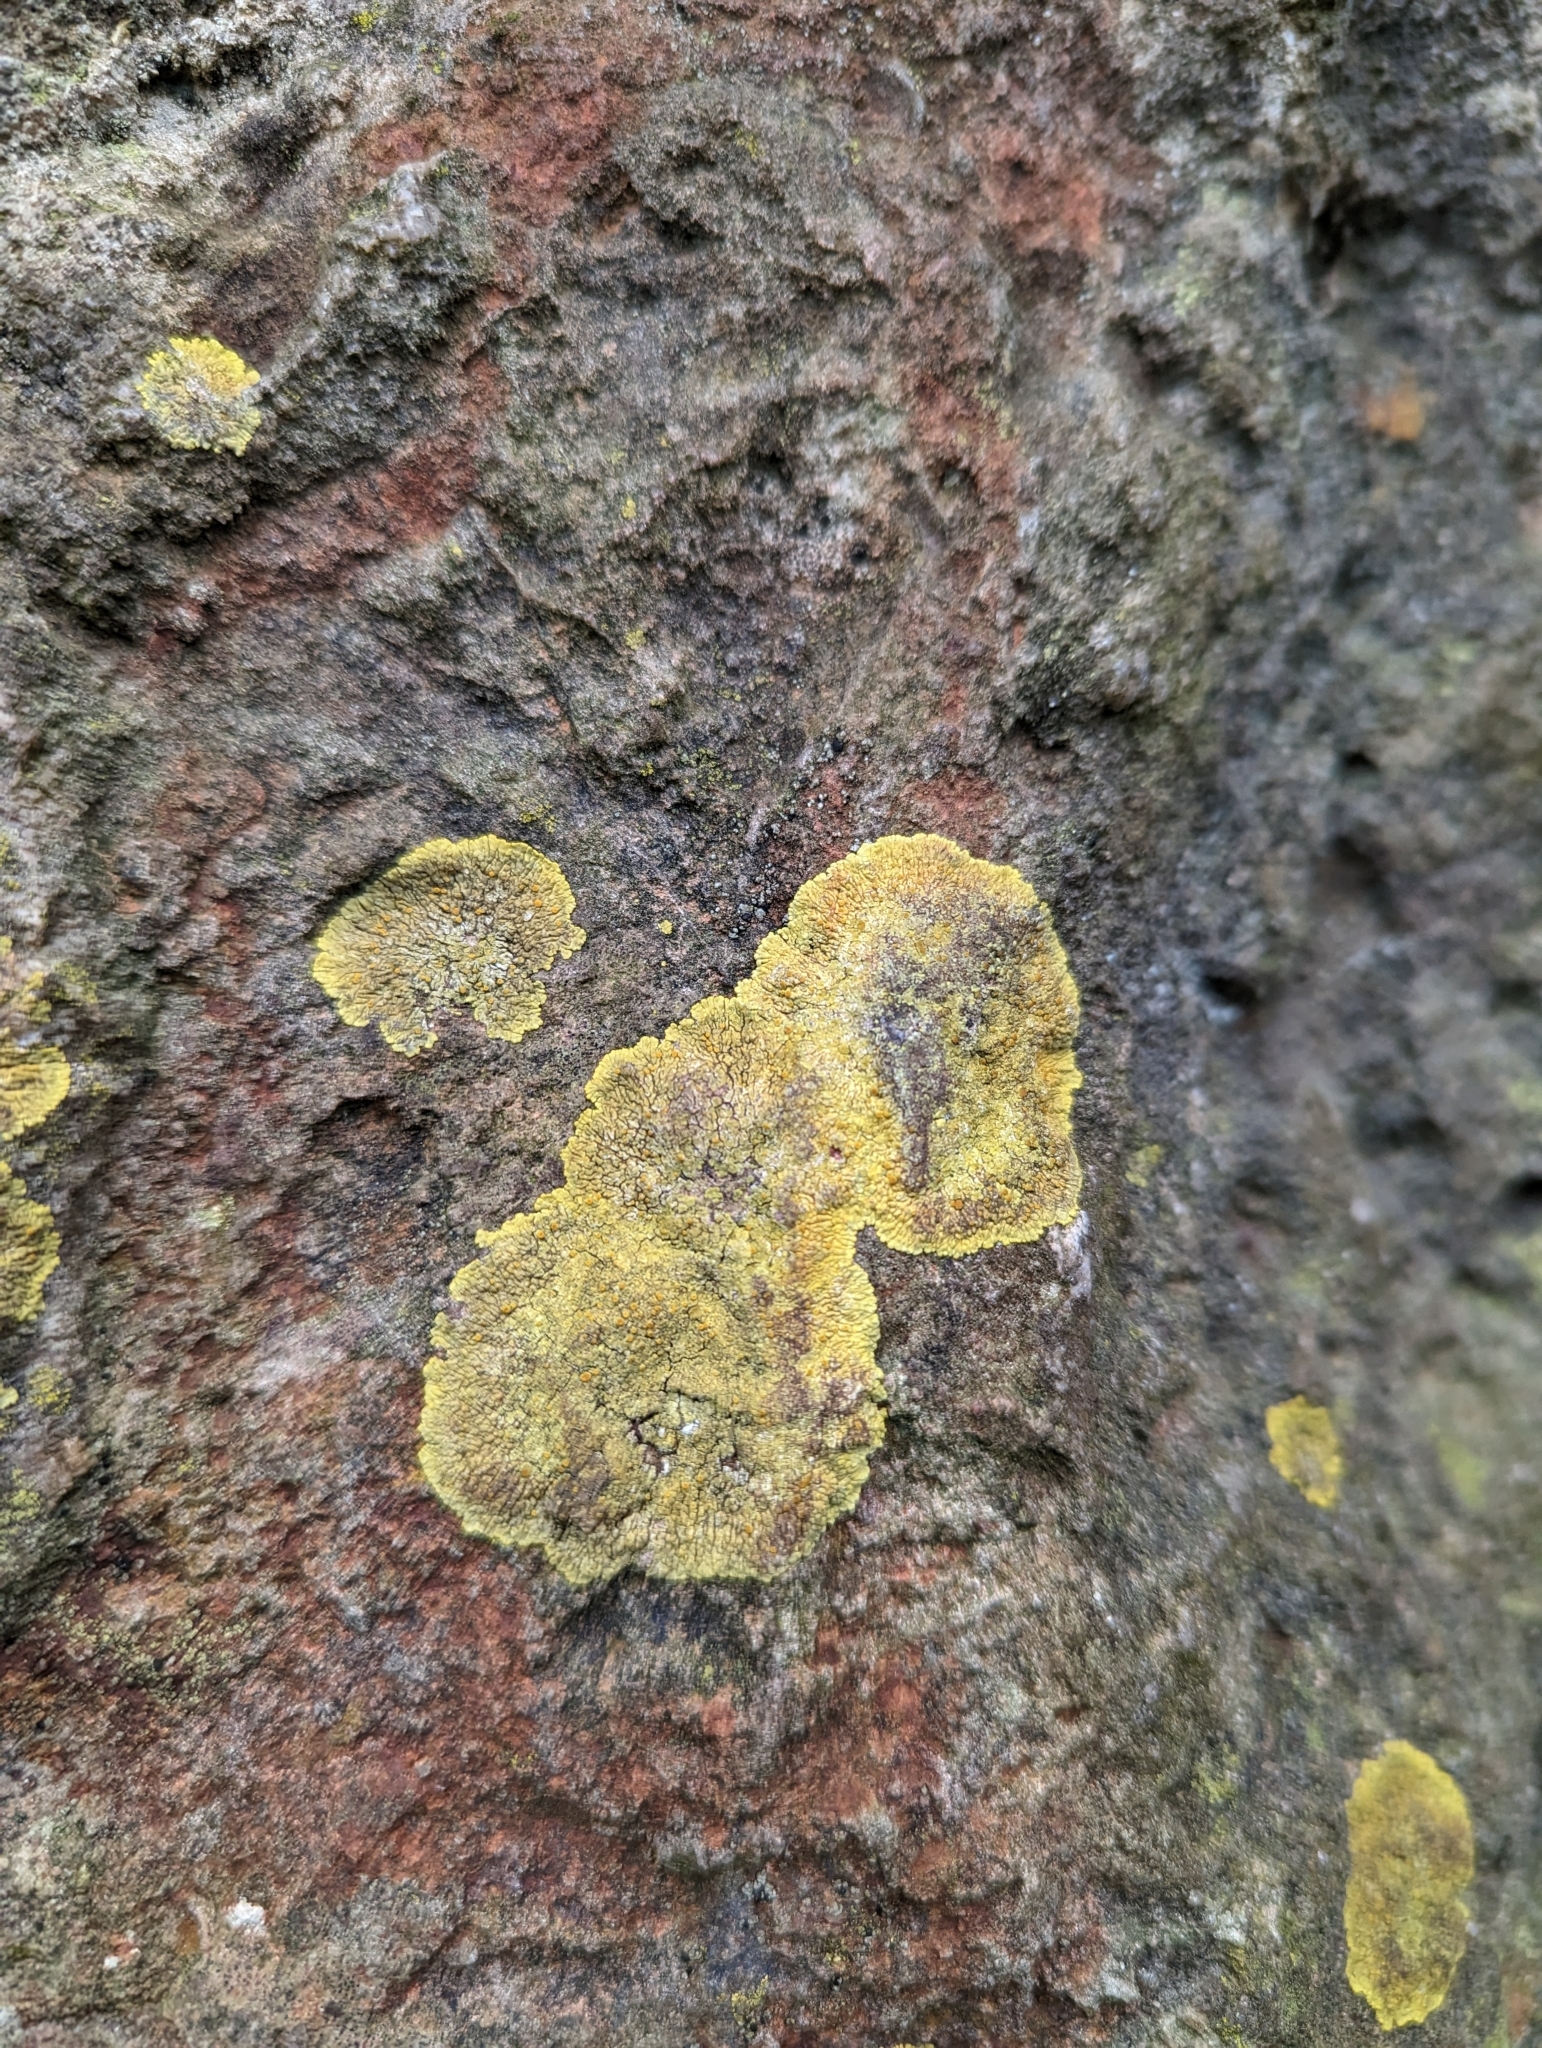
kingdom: Fungi
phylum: Ascomycota
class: Lecanoromycetes
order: Teloschistales
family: Teloschistaceae
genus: Variospora
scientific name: Variospora flavescens
